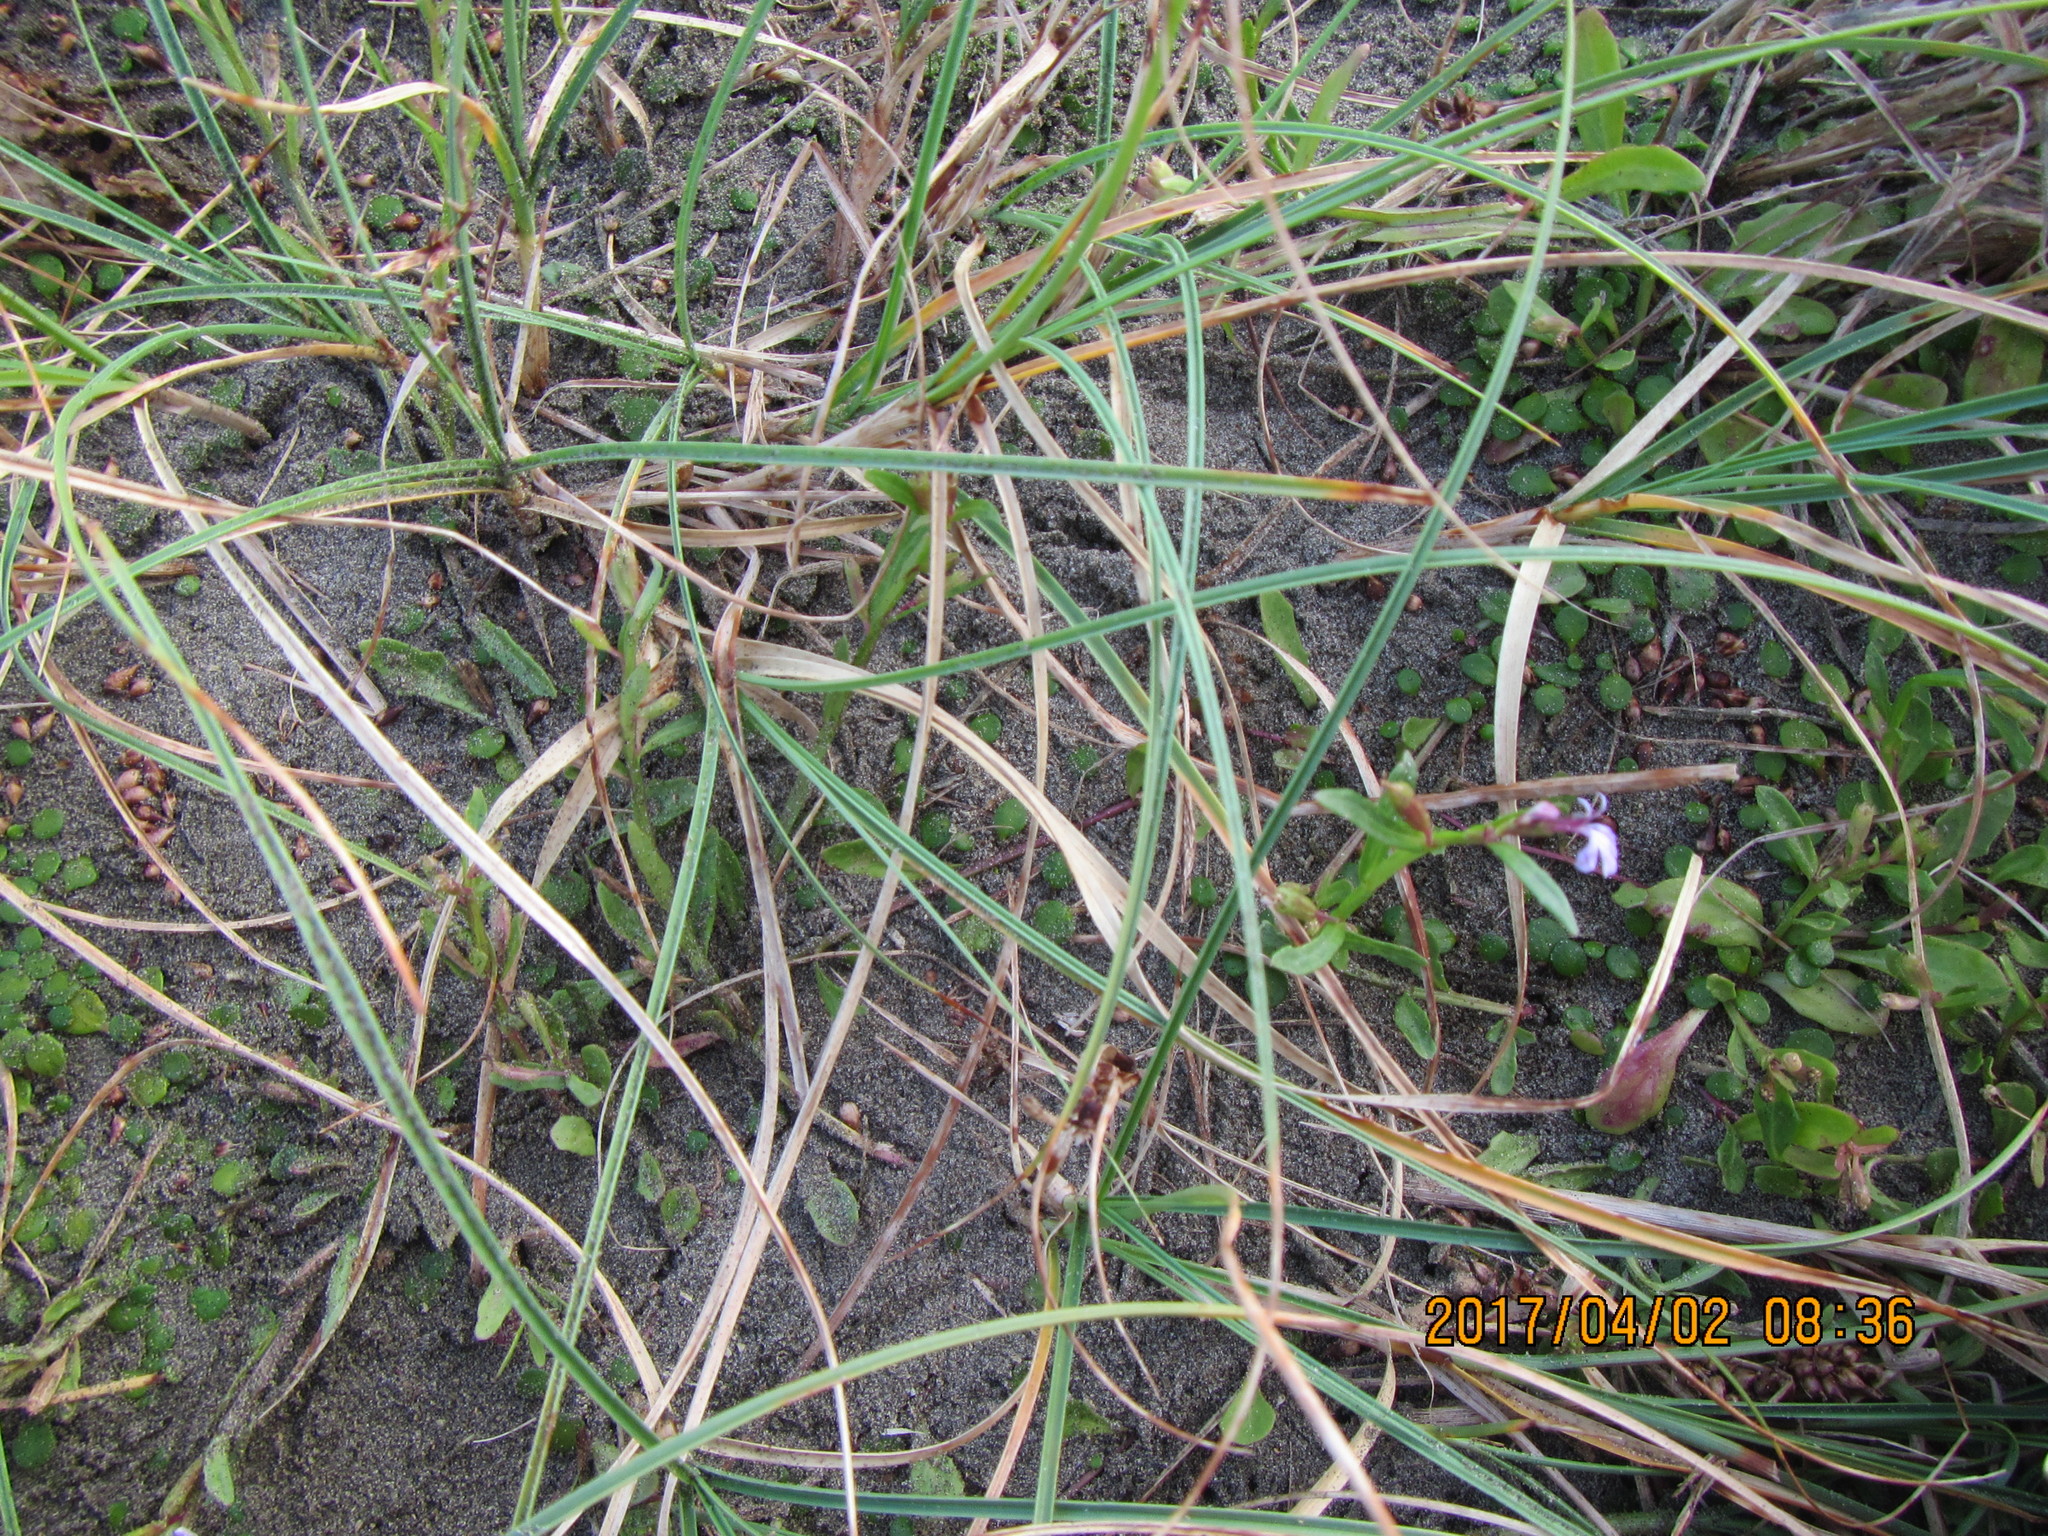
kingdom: Plantae
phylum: Tracheophyta
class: Magnoliopsida
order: Asterales
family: Campanulaceae
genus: Lobelia
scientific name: Lobelia anceps
